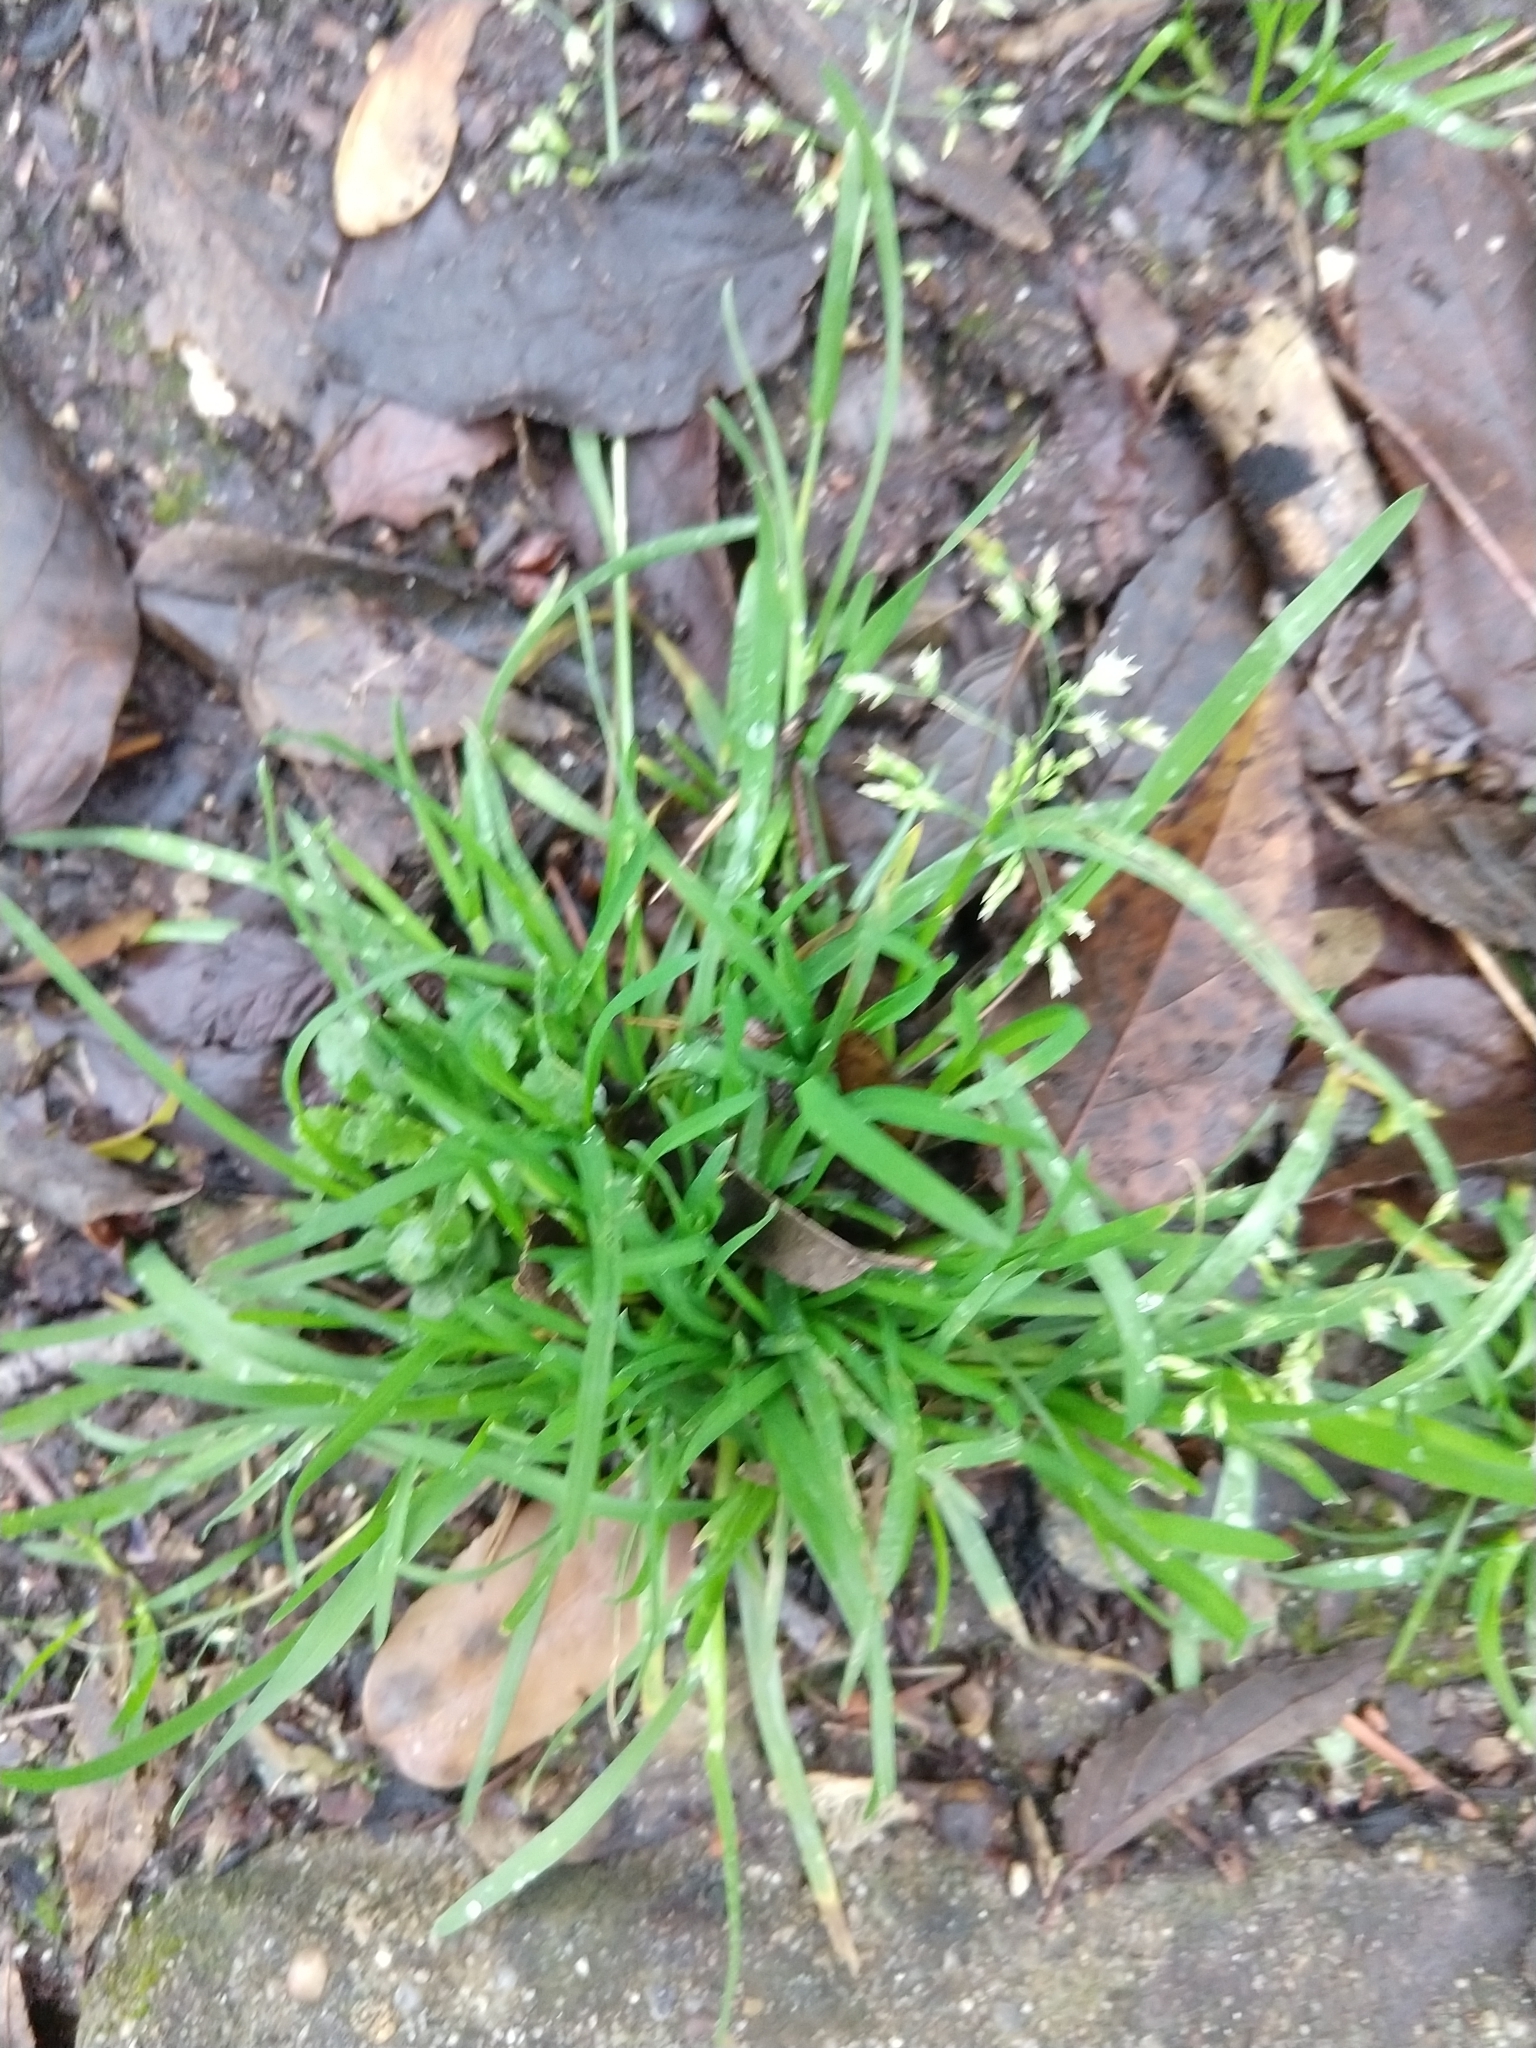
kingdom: Plantae
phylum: Tracheophyta
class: Liliopsida
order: Poales
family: Poaceae
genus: Poa
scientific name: Poa annua
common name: Annual bluegrass
